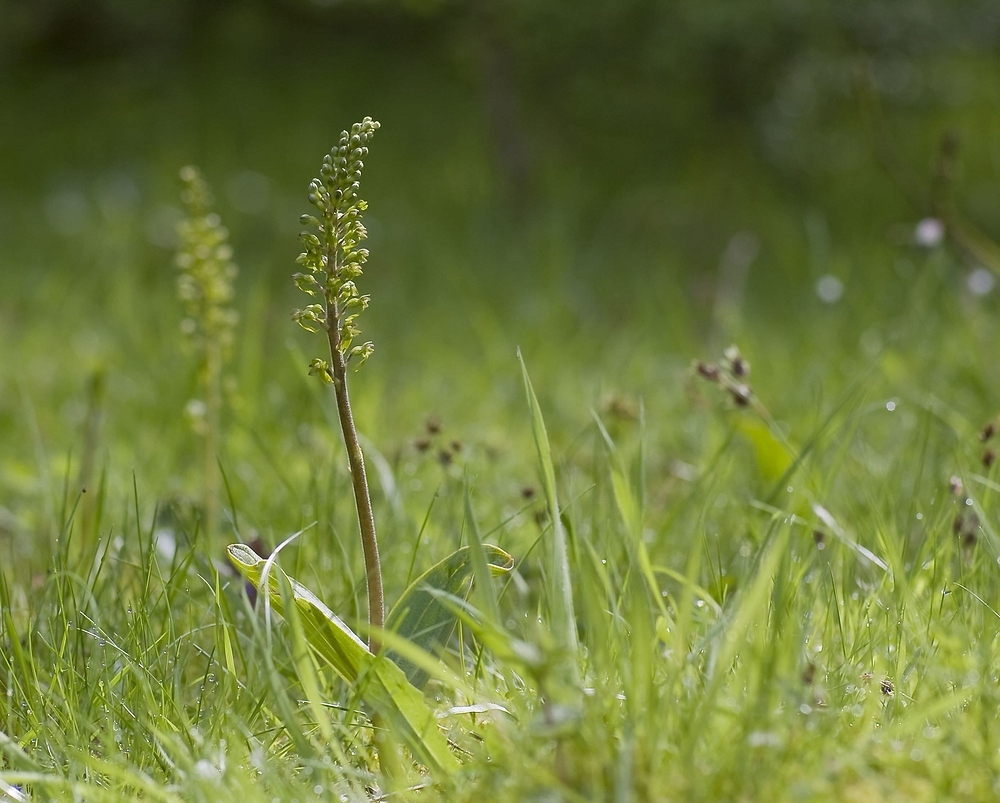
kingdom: Plantae
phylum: Tracheophyta
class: Liliopsida
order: Asparagales
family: Orchidaceae
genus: Neottia
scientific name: Neottia ovata
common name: Common twayblade
